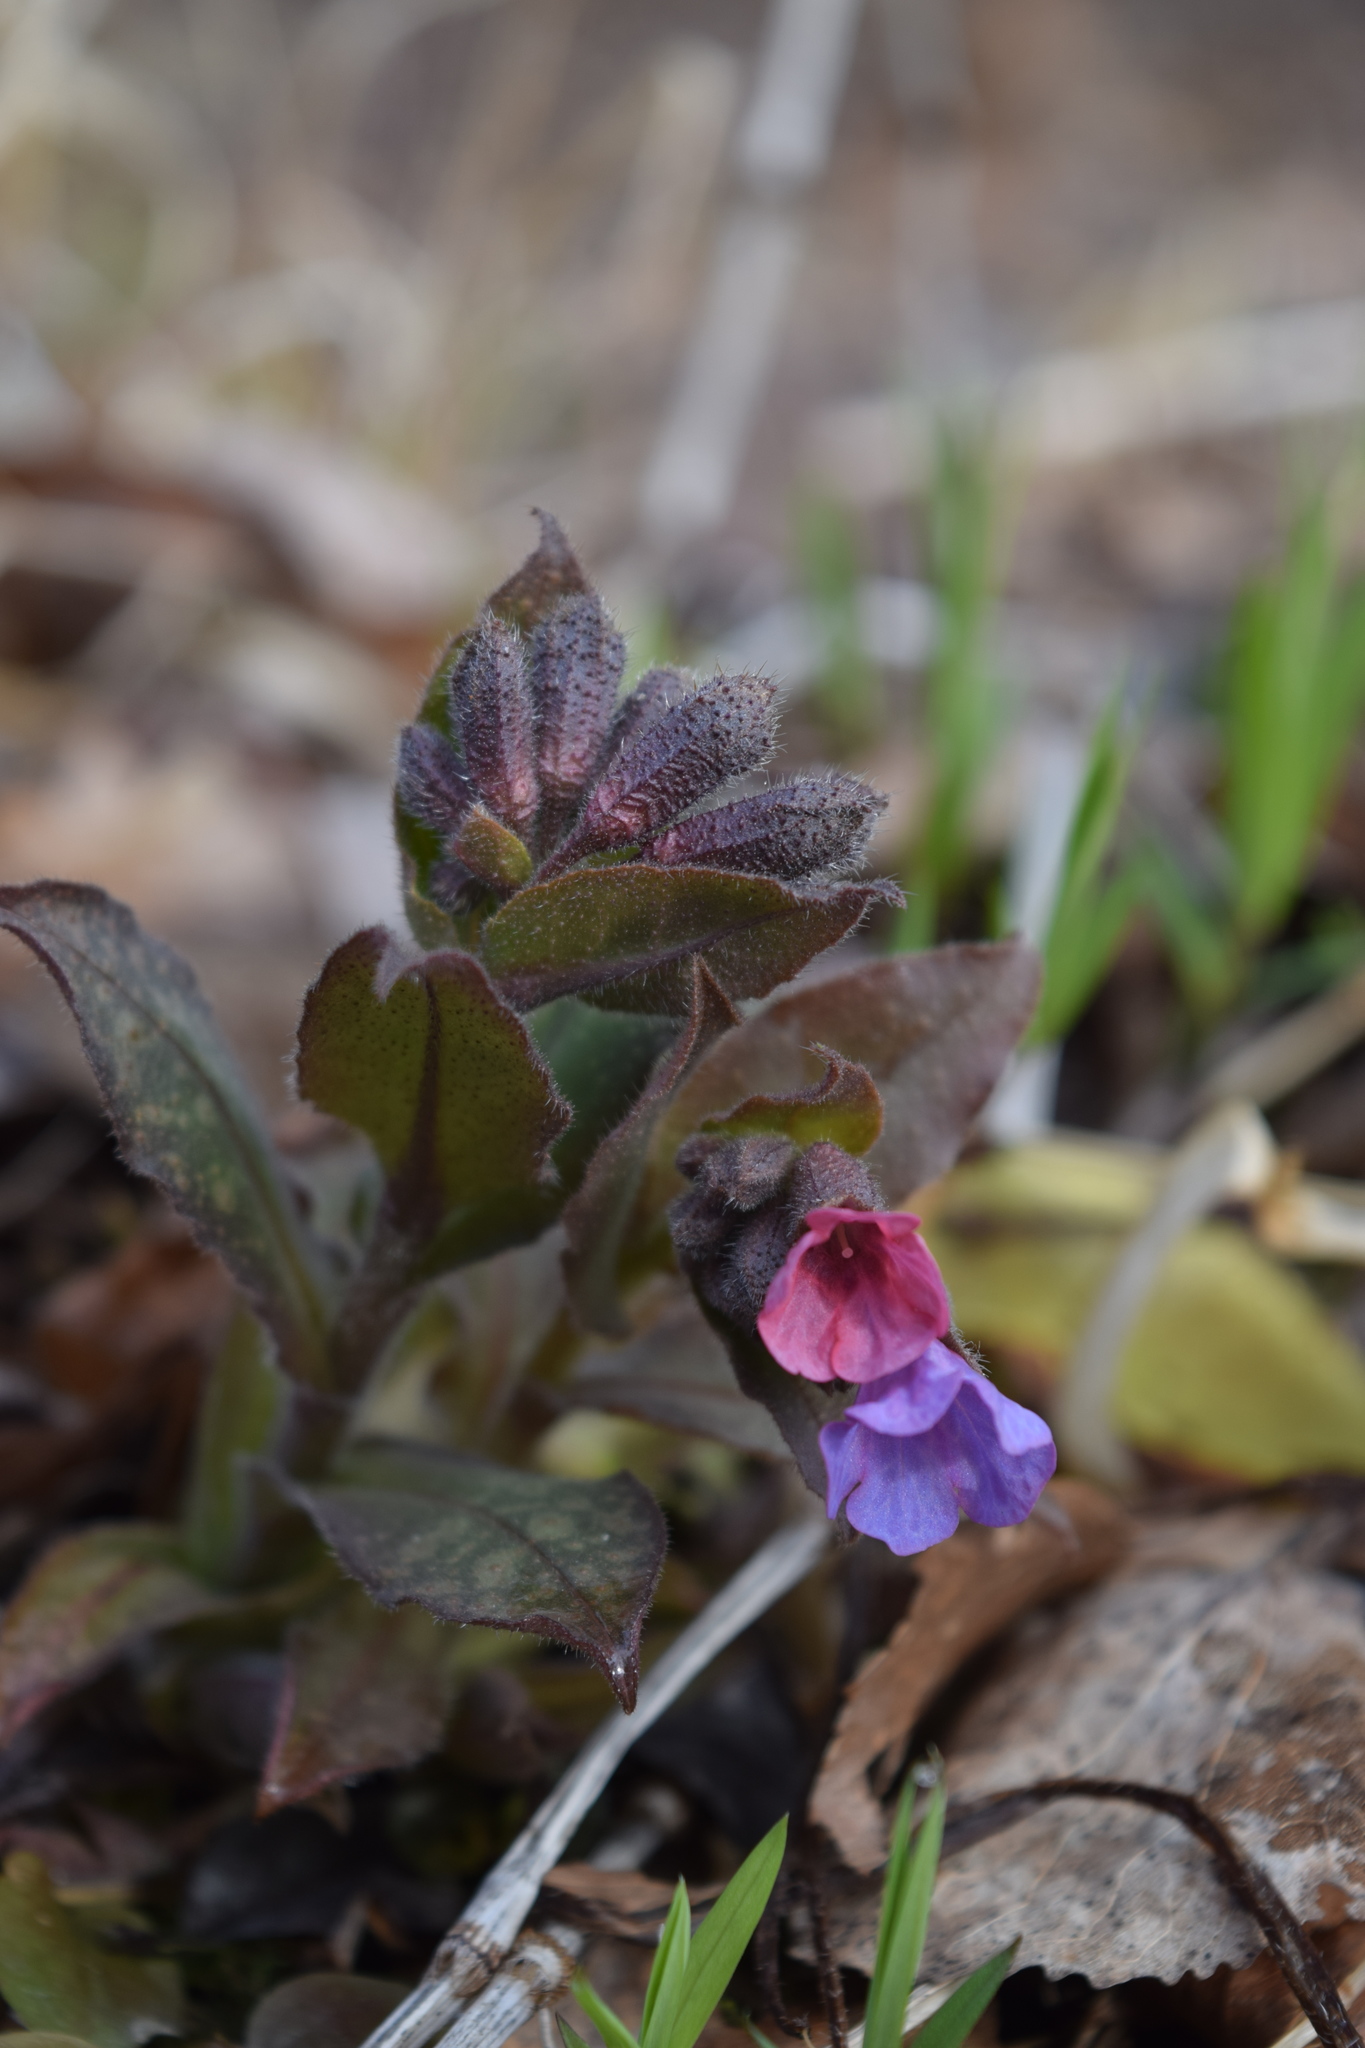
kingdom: Plantae
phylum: Tracheophyta
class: Magnoliopsida
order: Boraginales
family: Boraginaceae
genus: Pulmonaria
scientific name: Pulmonaria obscura
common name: Suffolk lungwort
